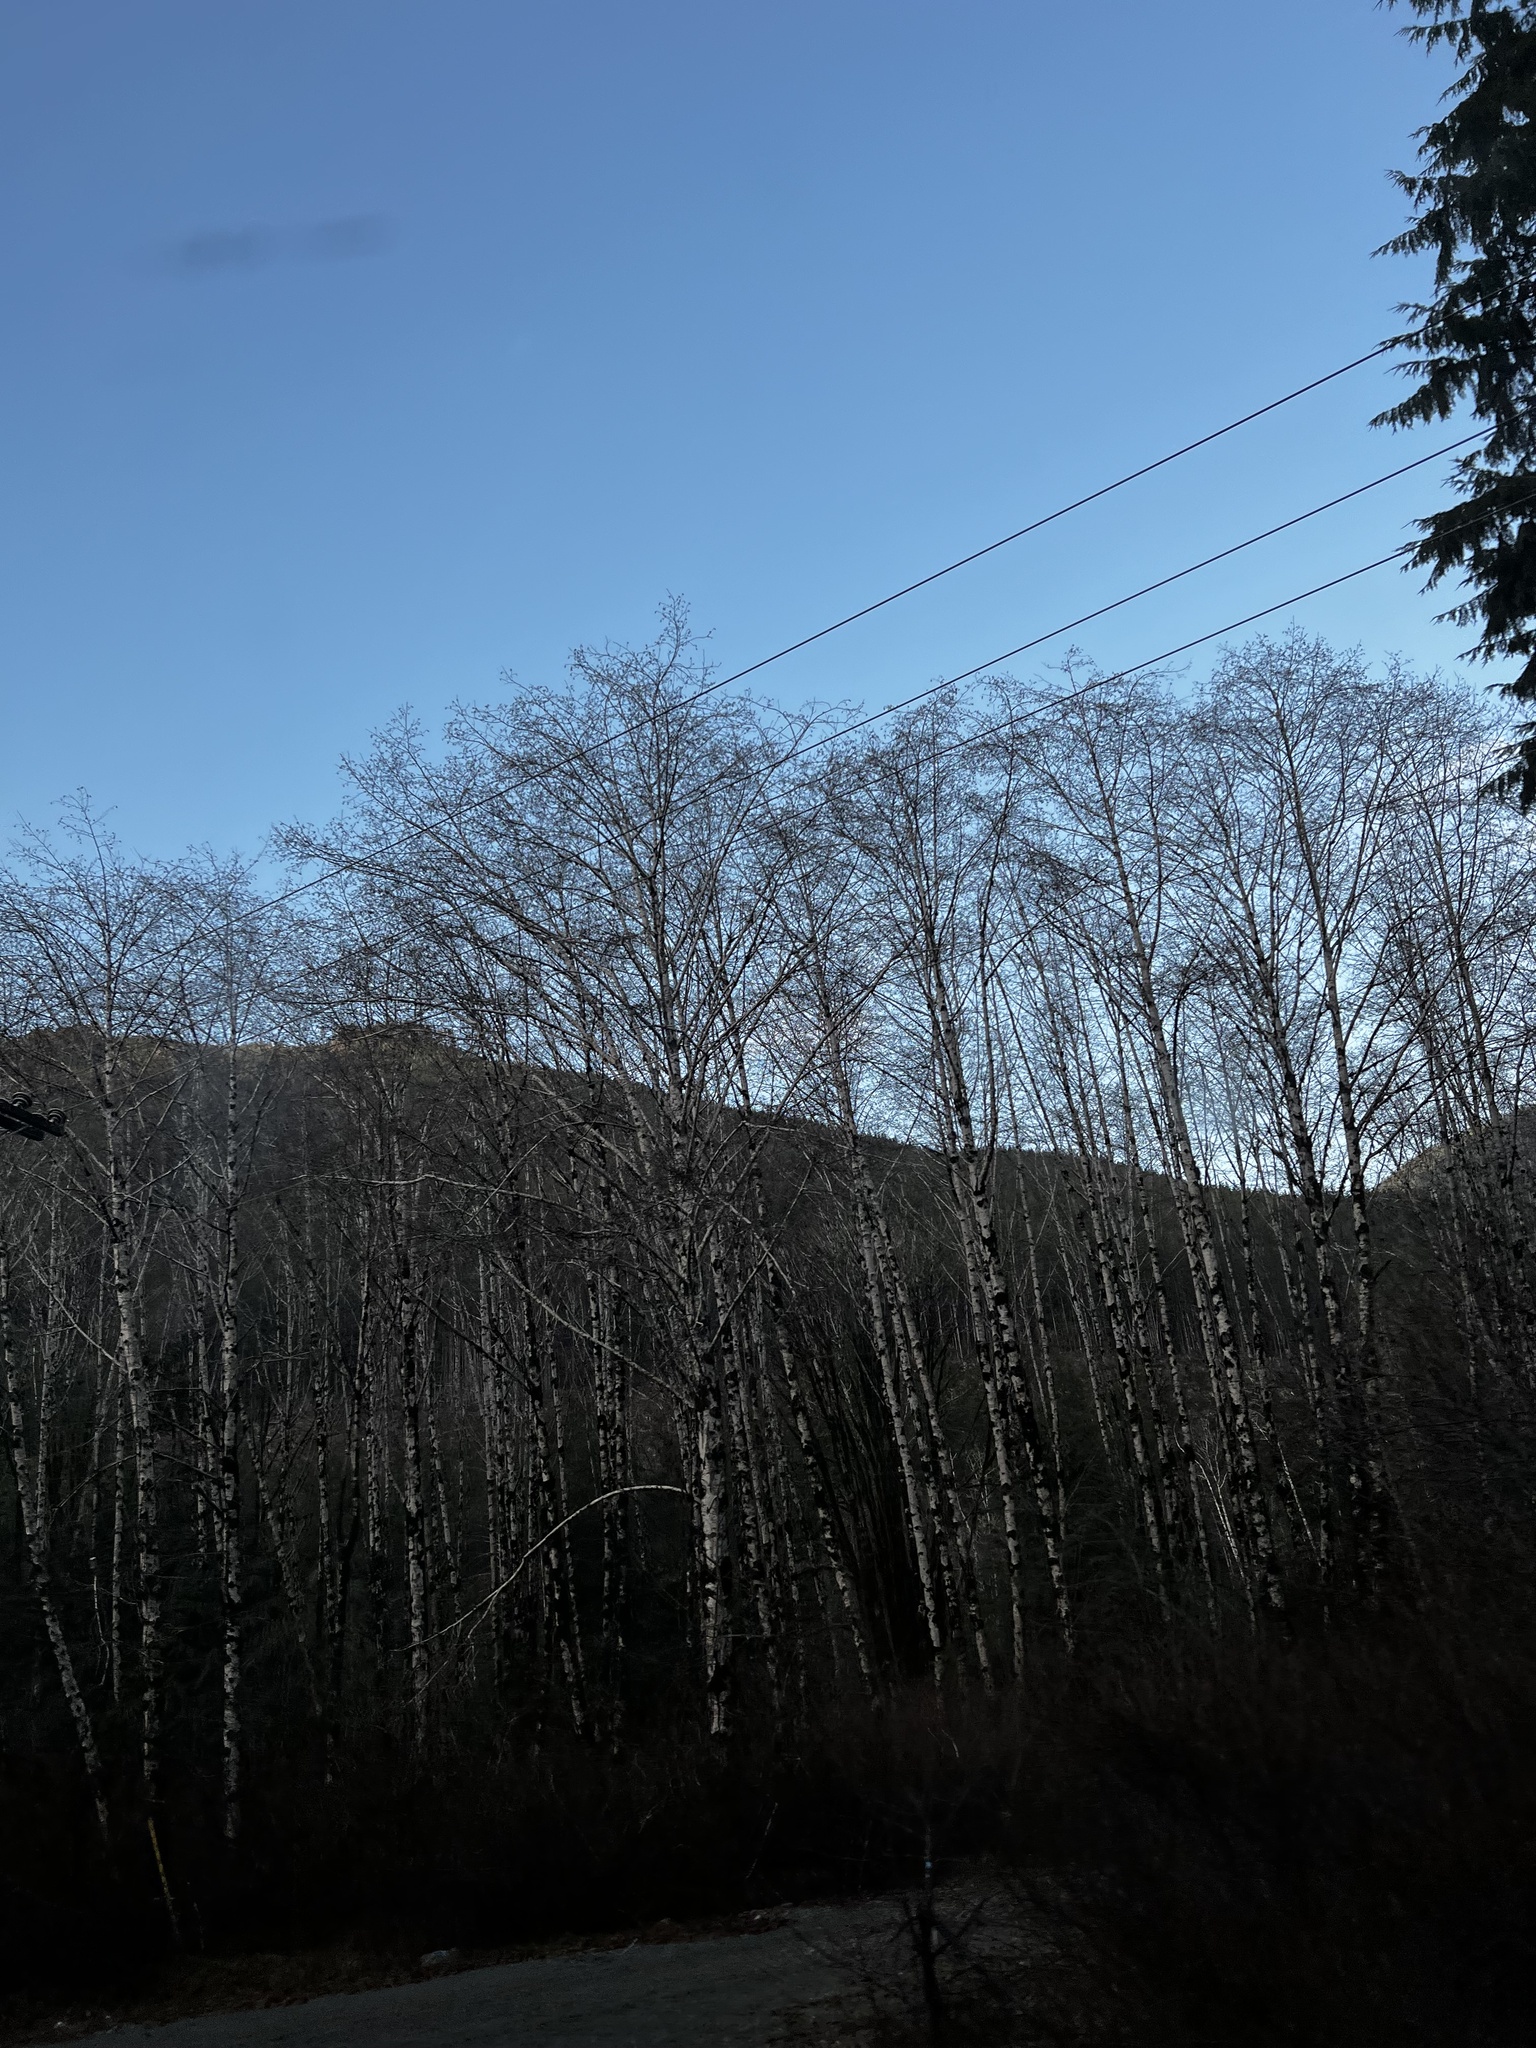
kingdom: Plantae
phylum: Tracheophyta
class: Magnoliopsida
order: Fagales
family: Betulaceae
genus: Alnus
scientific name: Alnus rubra
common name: Red alder
